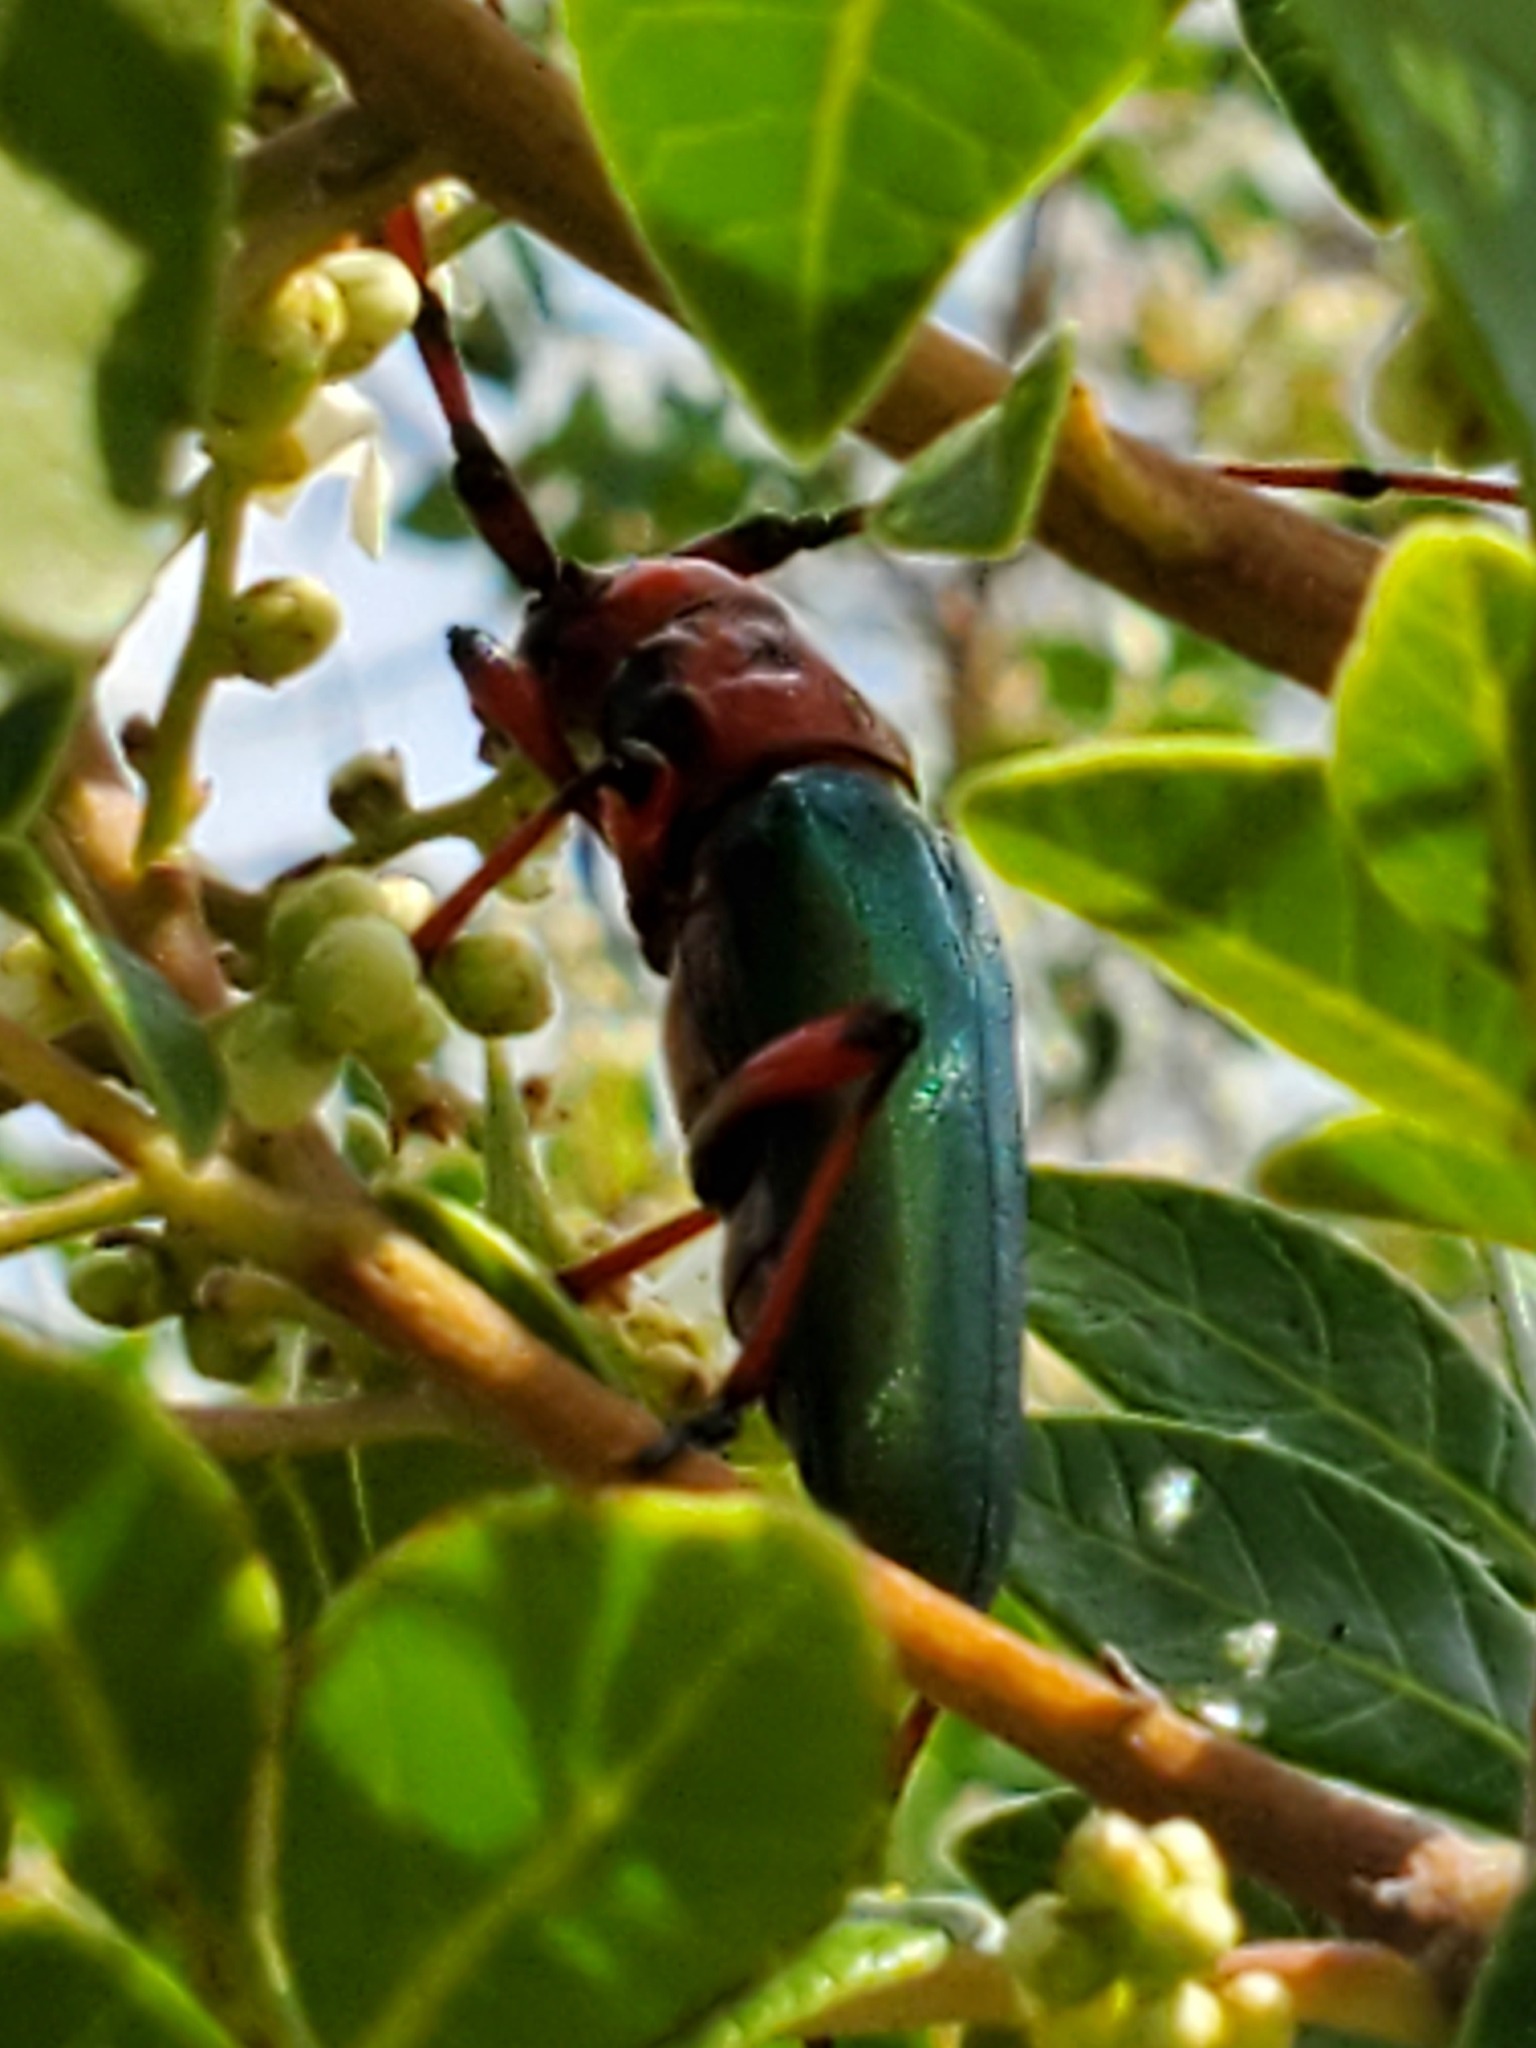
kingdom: Animalia
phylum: Arthropoda
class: Insecta
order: Coleoptera
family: Cerambycidae
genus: Stenaspis
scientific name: Stenaspis verticalis
